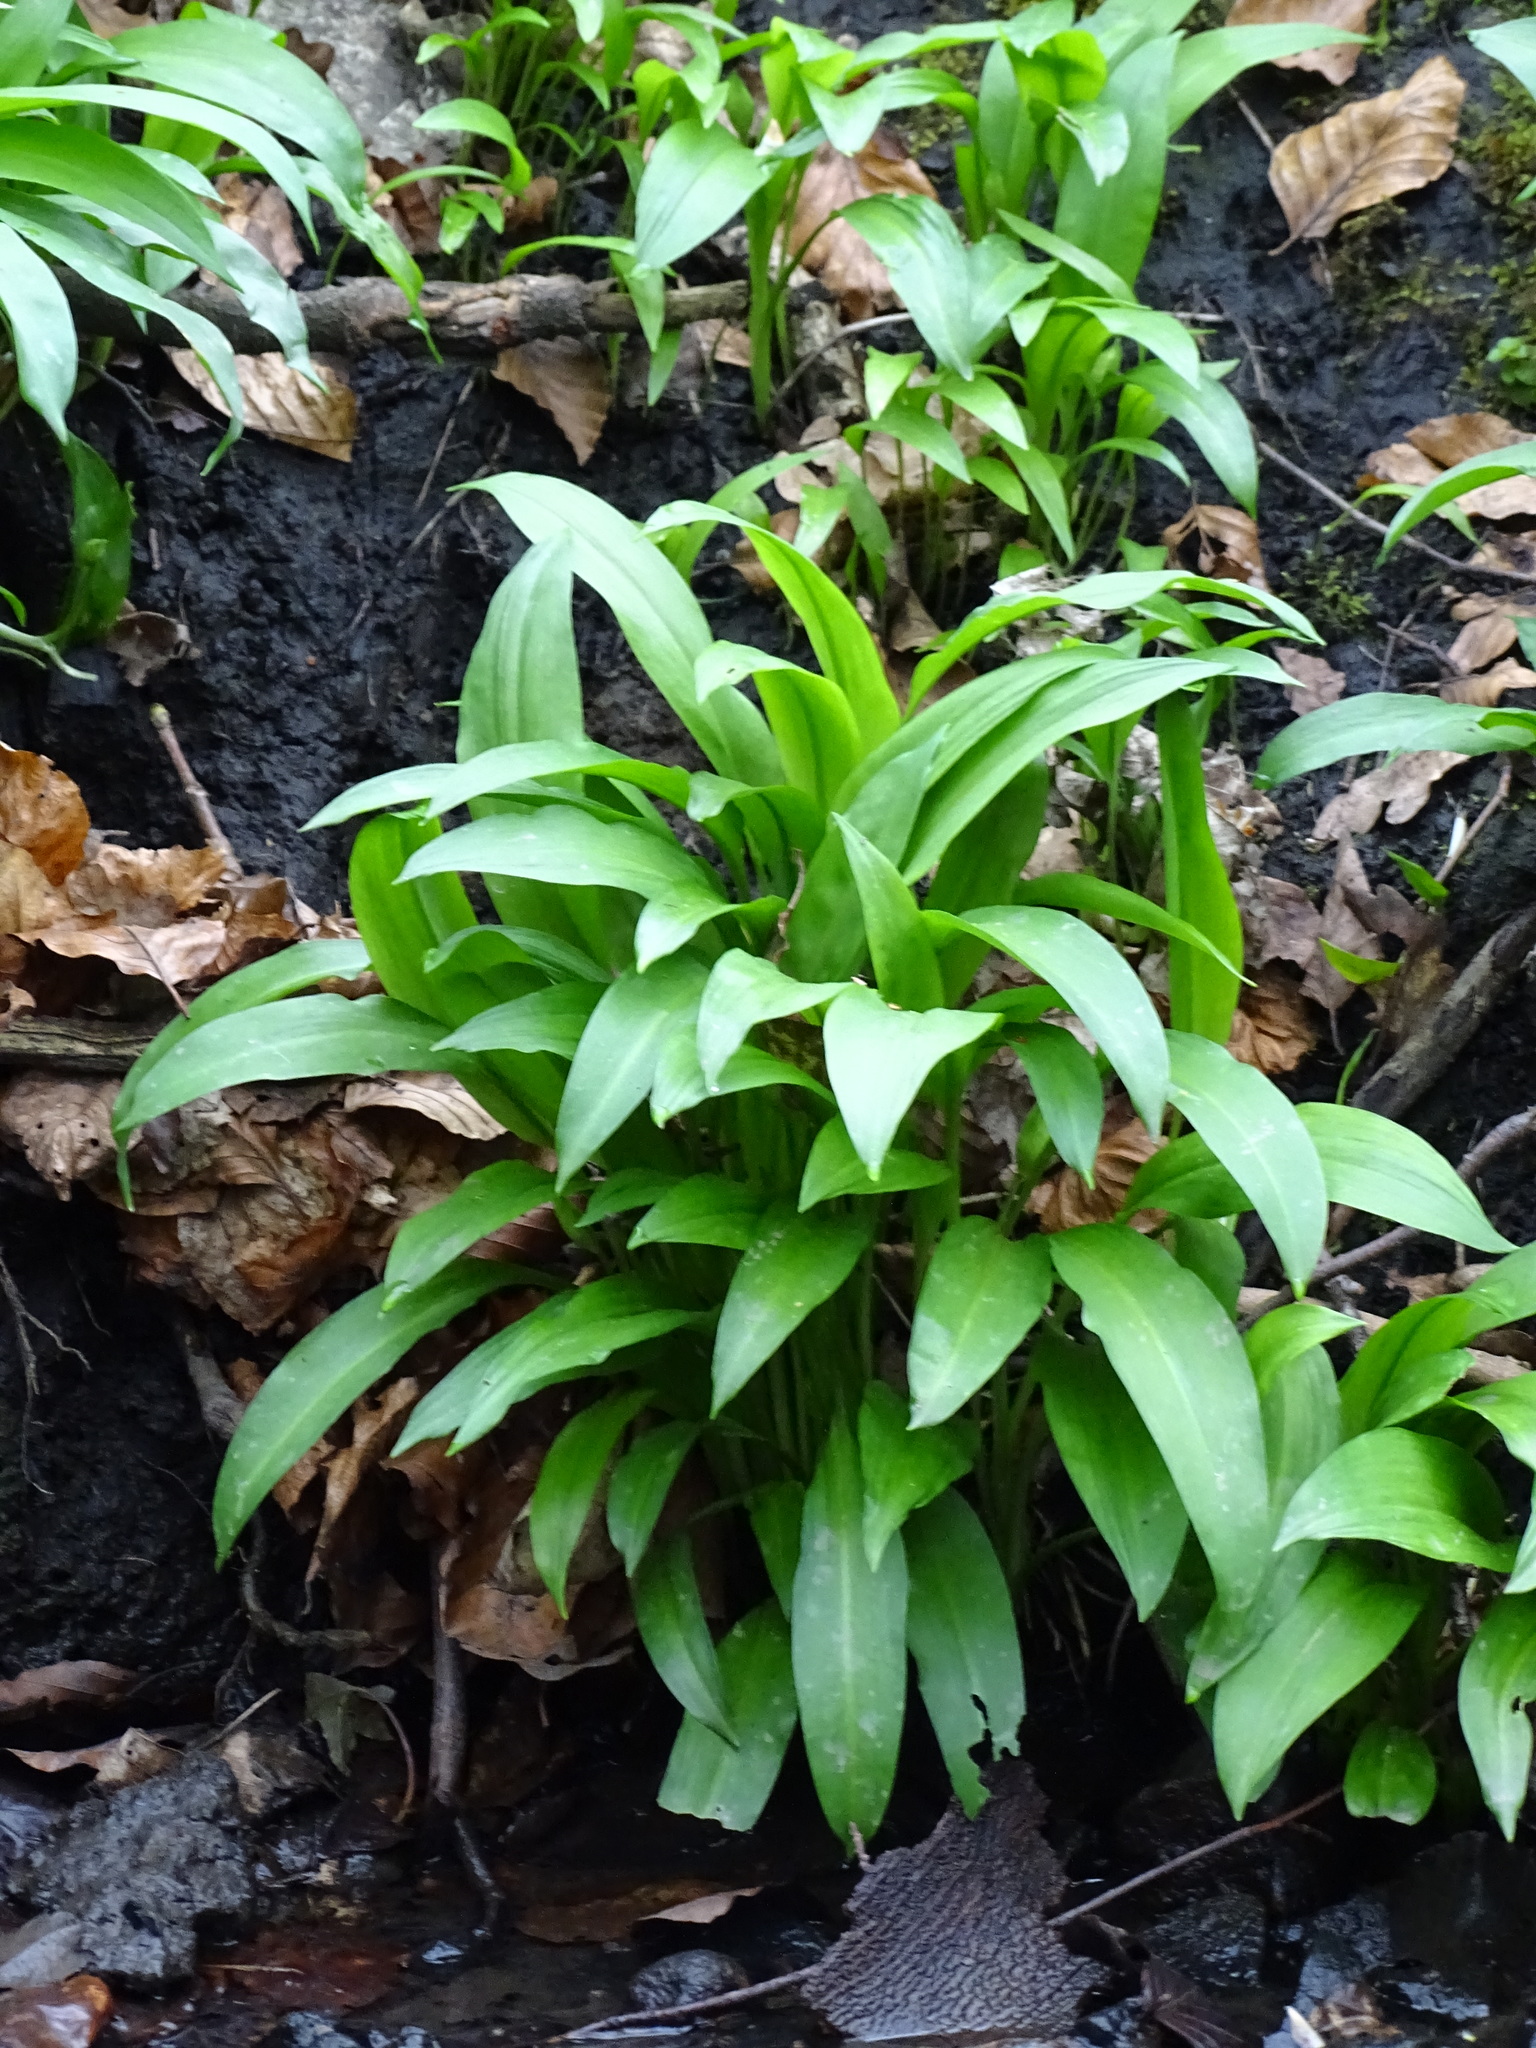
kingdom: Plantae
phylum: Tracheophyta
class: Liliopsida
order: Asparagales
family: Amaryllidaceae
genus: Allium
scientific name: Allium ursinum
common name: Ramsons
